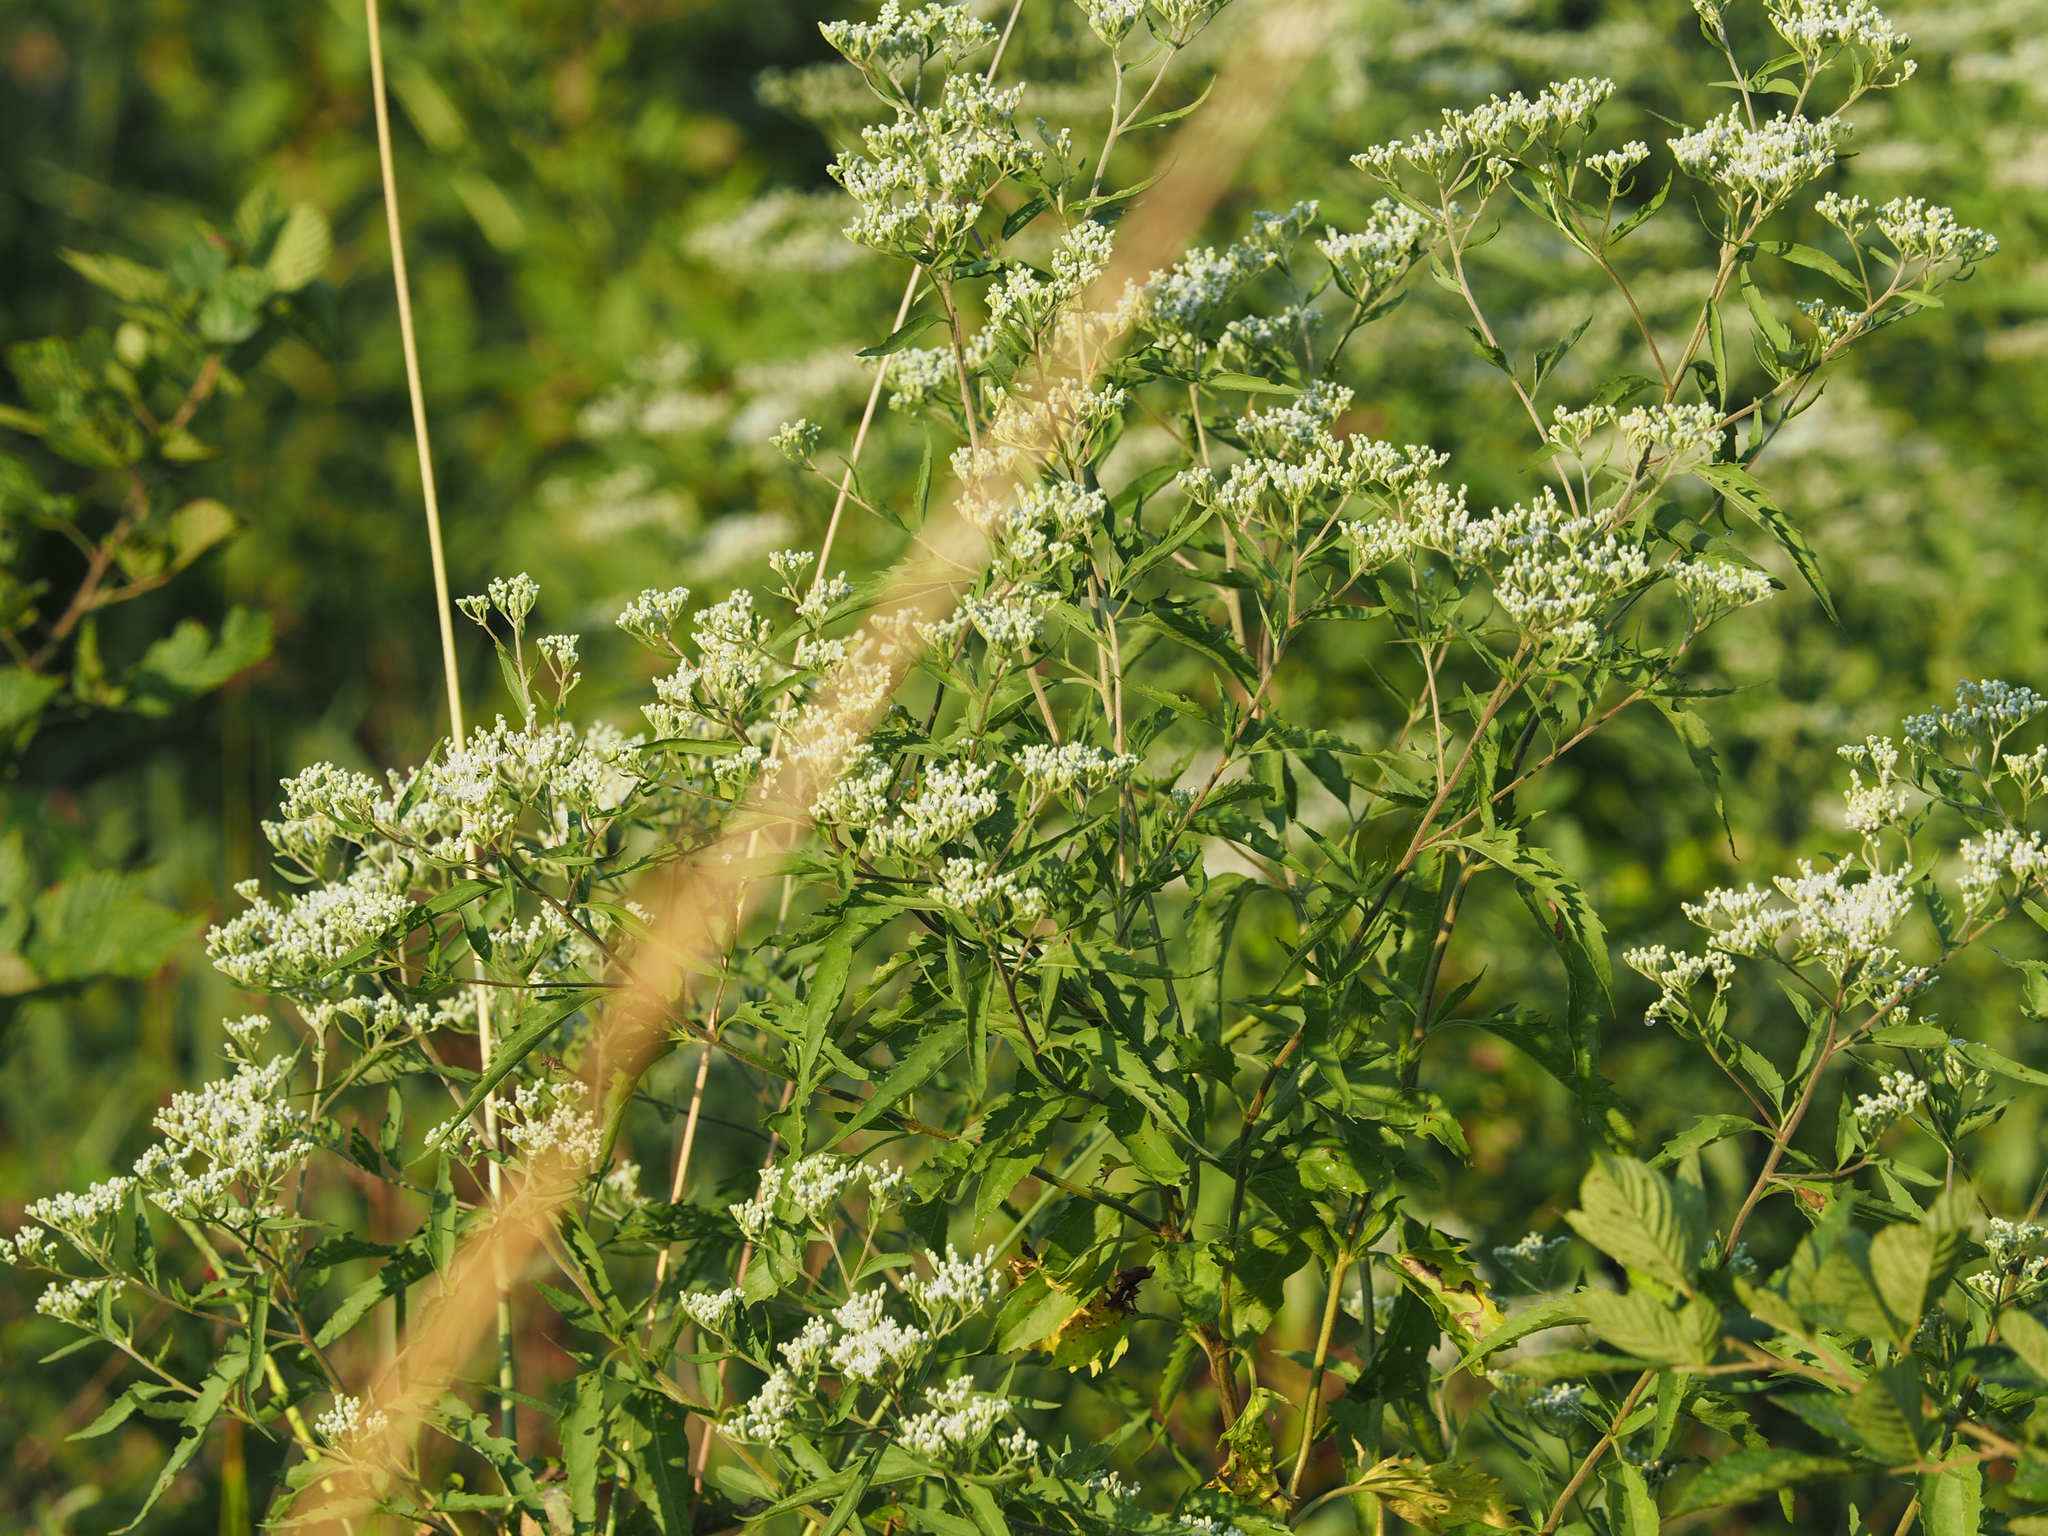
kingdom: Plantae
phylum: Tracheophyta
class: Magnoliopsida
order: Asterales
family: Asteraceae
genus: Eupatorium
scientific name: Eupatorium serotinum
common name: Late boneset
